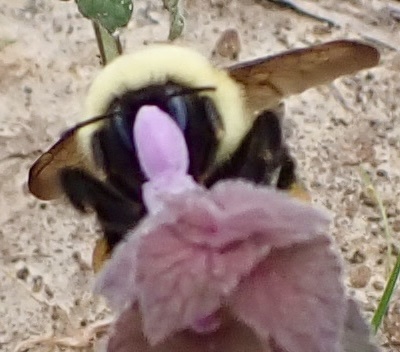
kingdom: Animalia
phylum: Arthropoda
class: Insecta
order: Hymenoptera
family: Apidae
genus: Bombus
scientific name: Bombus bimaculatus
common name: Two-spotted bumble bee
